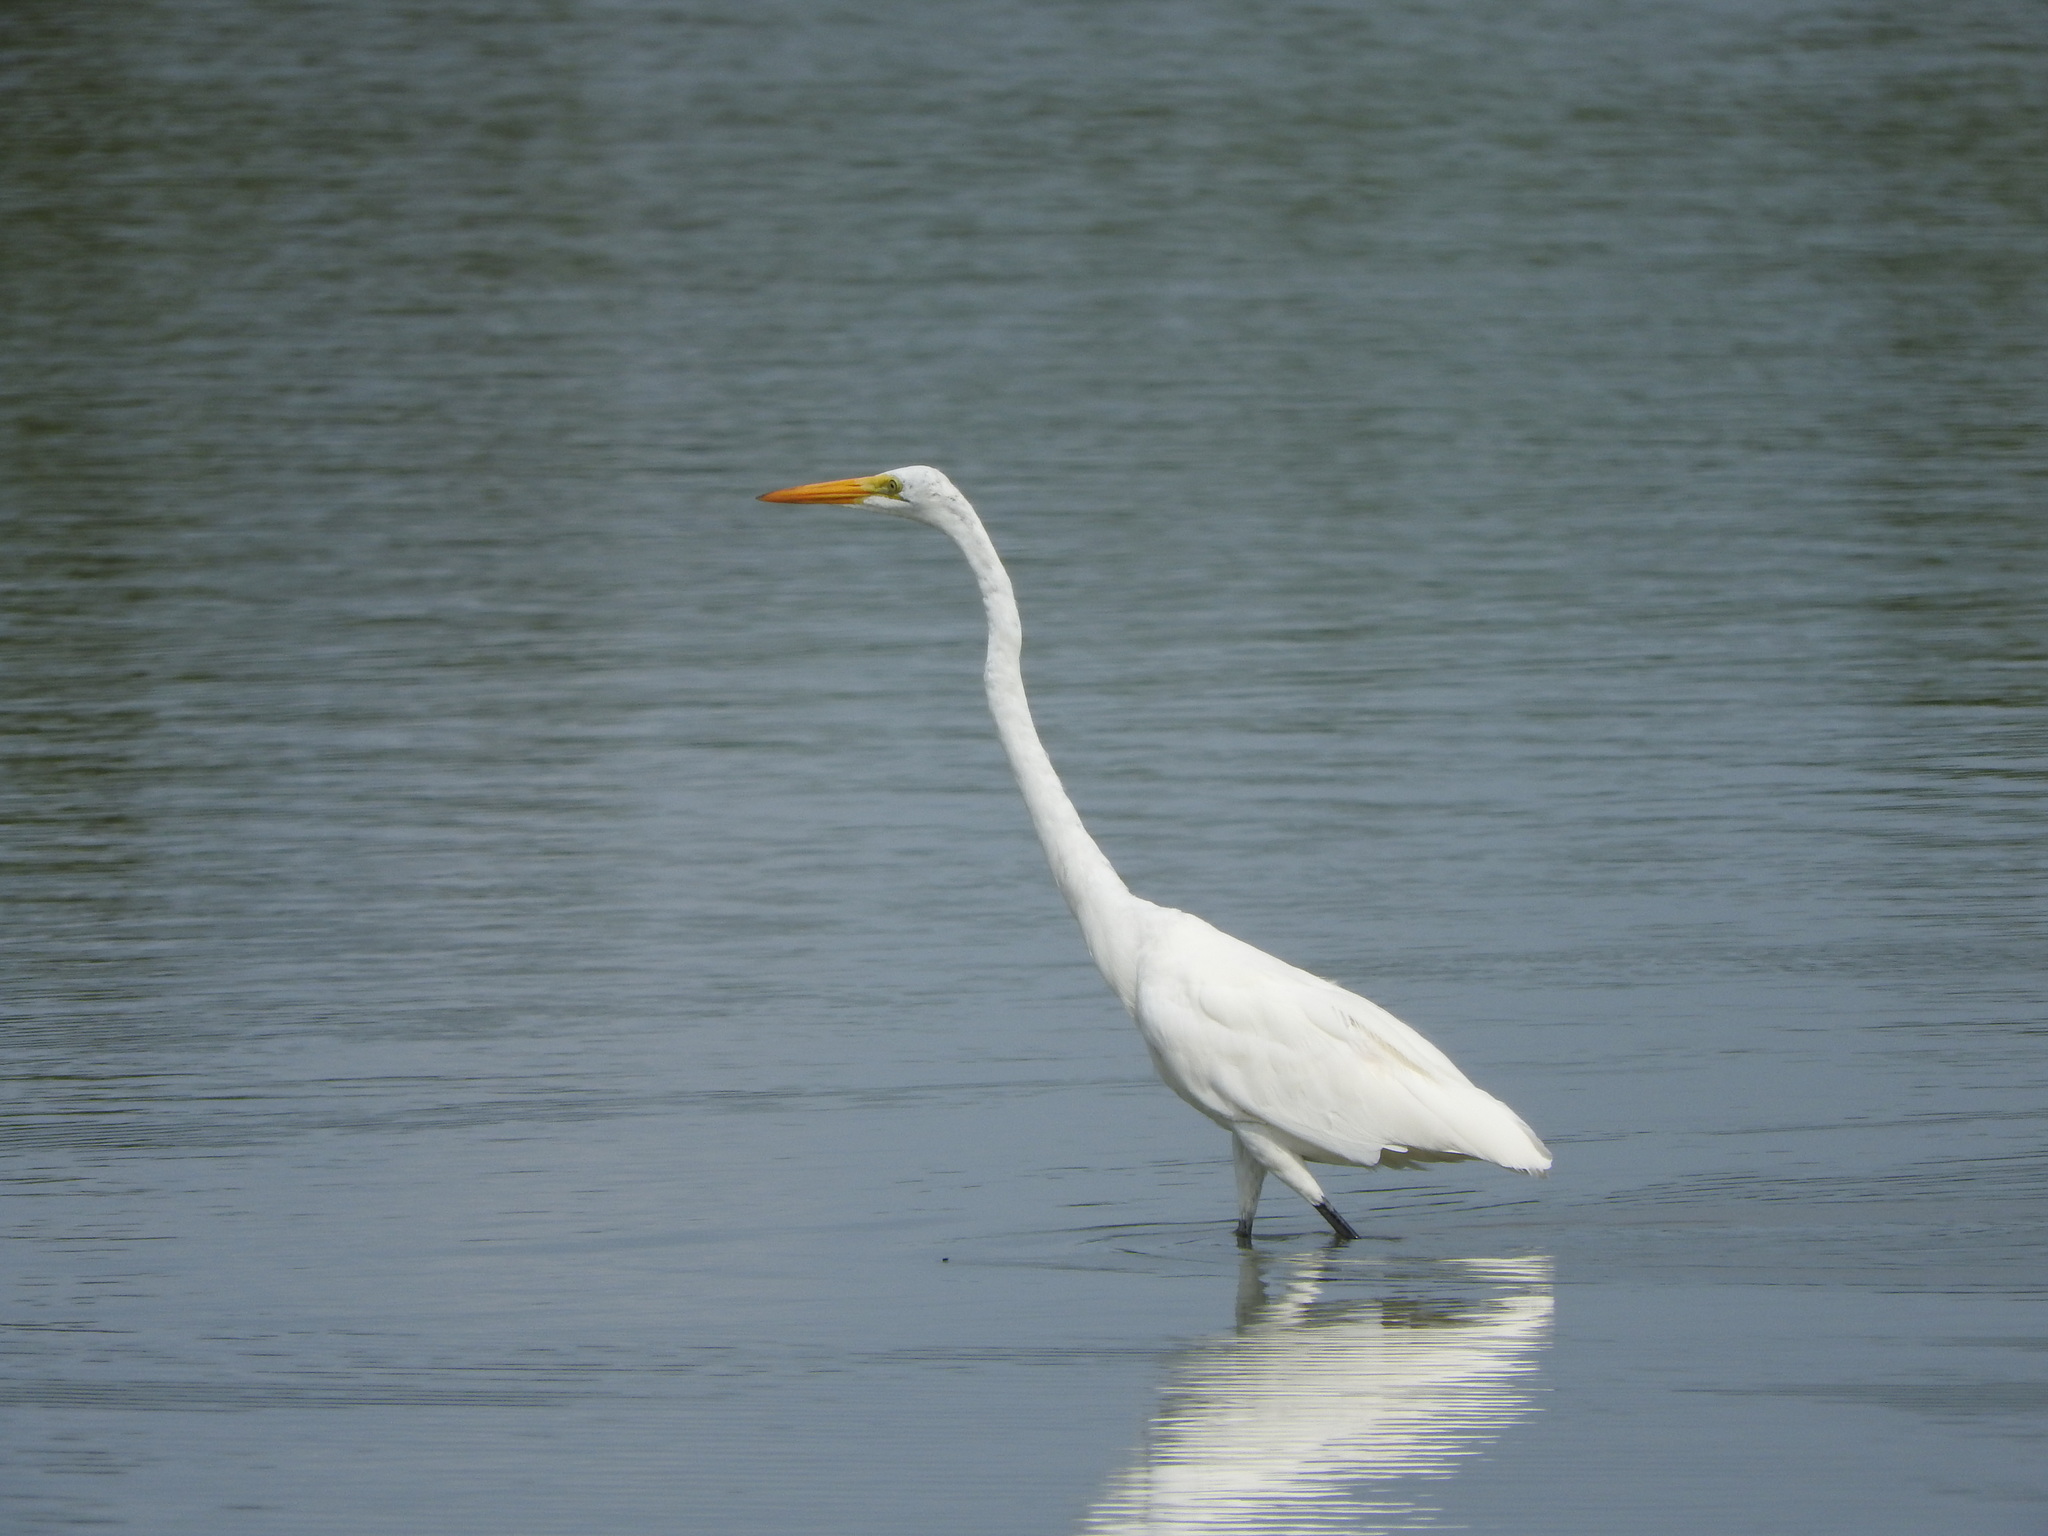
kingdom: Animalia
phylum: Chordata
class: Aves
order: Pelecaniformes
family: Ardeidae
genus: Ardea
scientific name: Ardea alba
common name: Great egret
